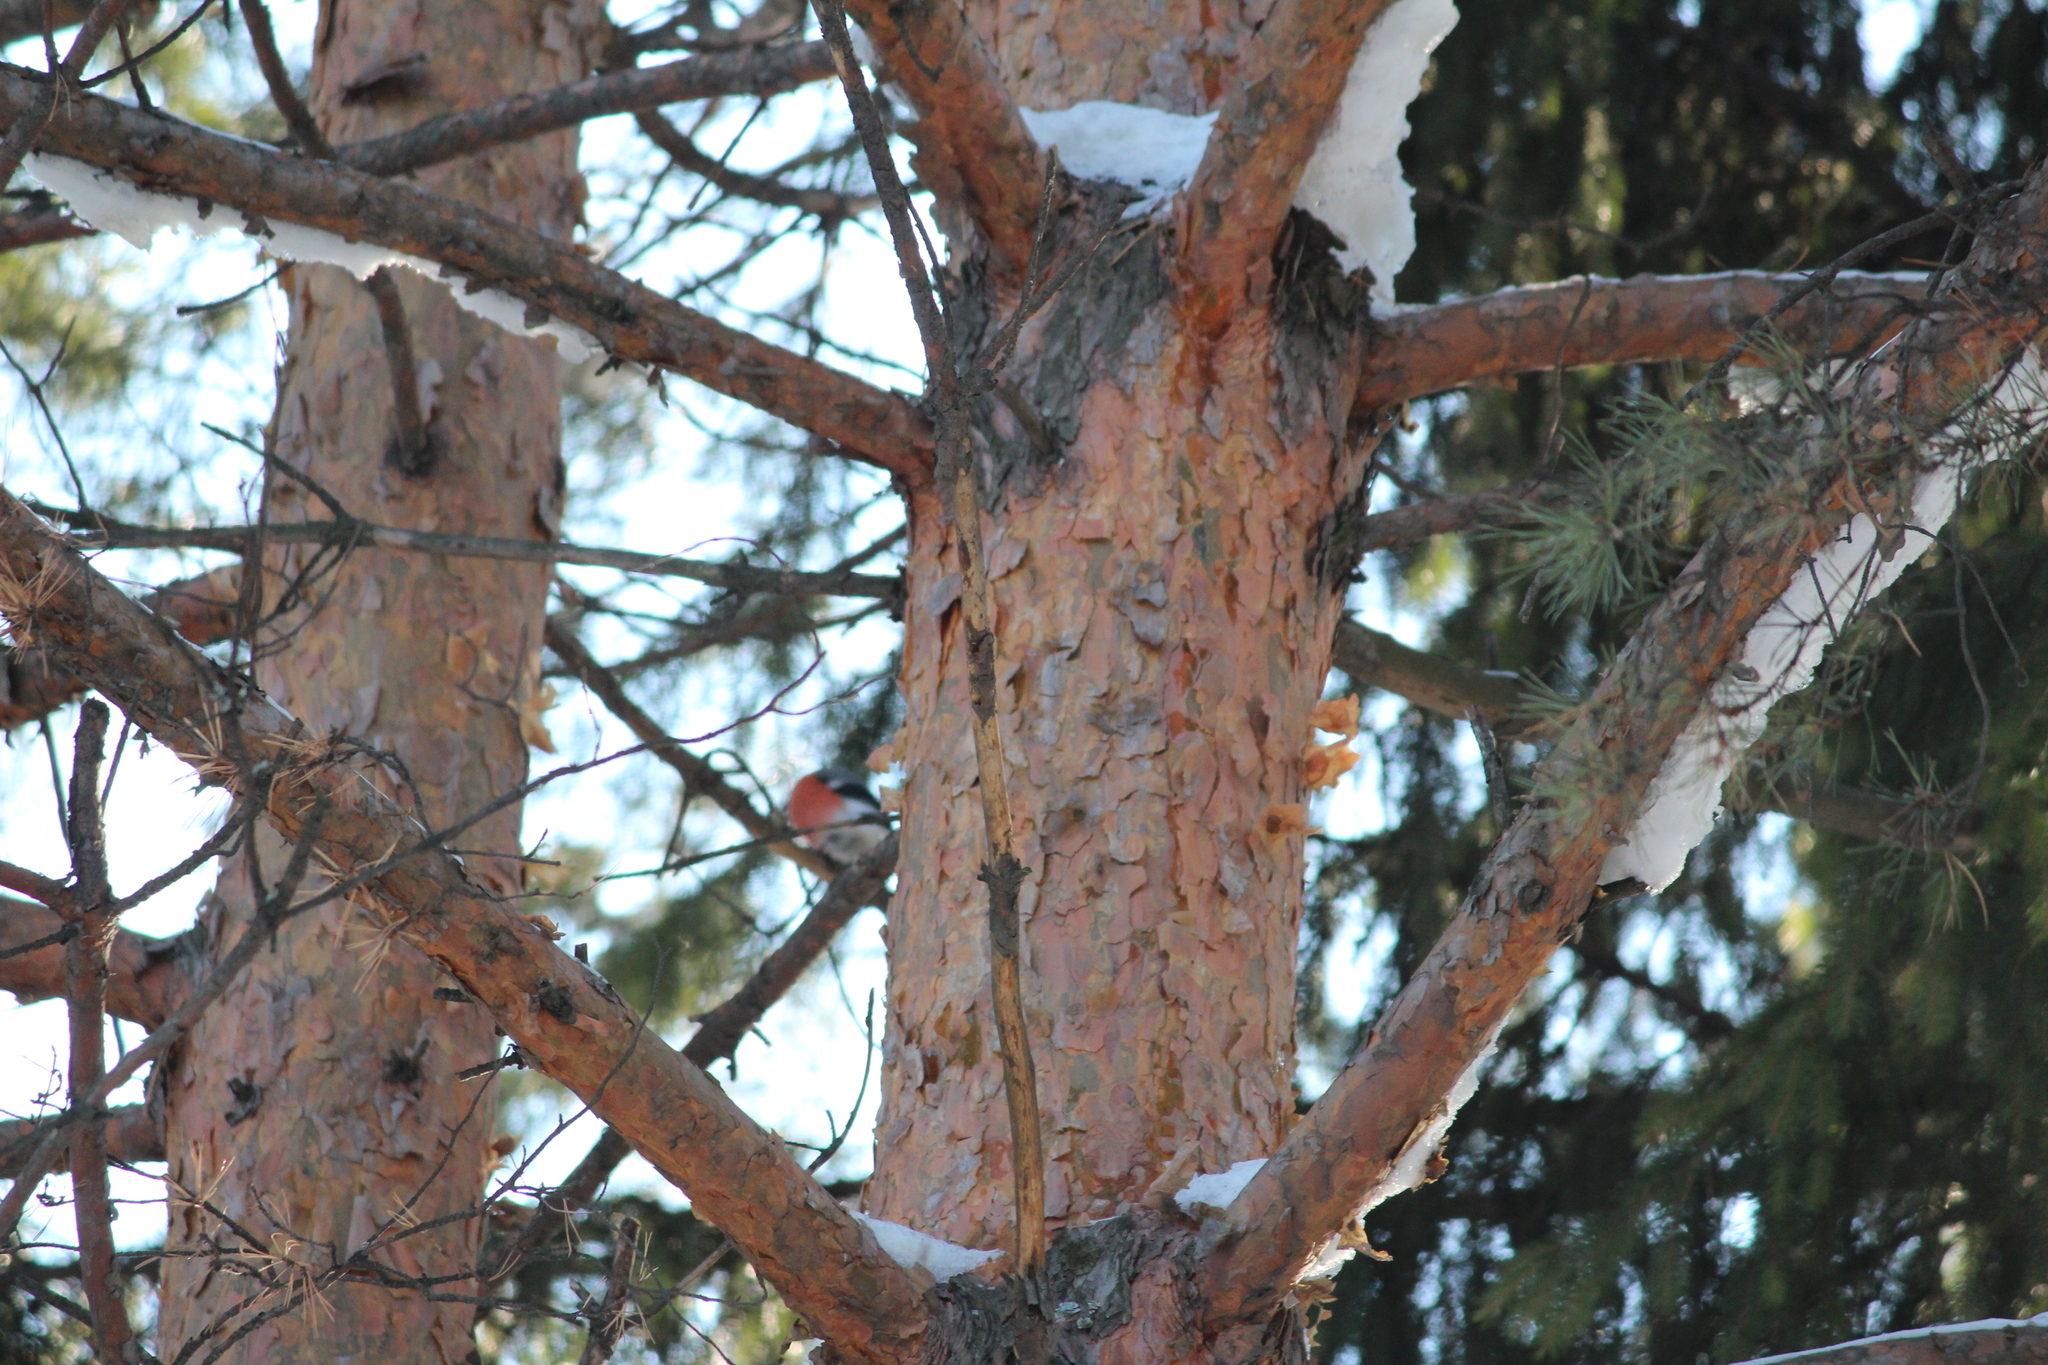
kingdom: Animalia
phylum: Chordata
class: Aves
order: Passeriformes
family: Fringillidae
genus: Pyrrhula
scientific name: Pyrrhula pyrrhula
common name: Eurasian bullfinch
